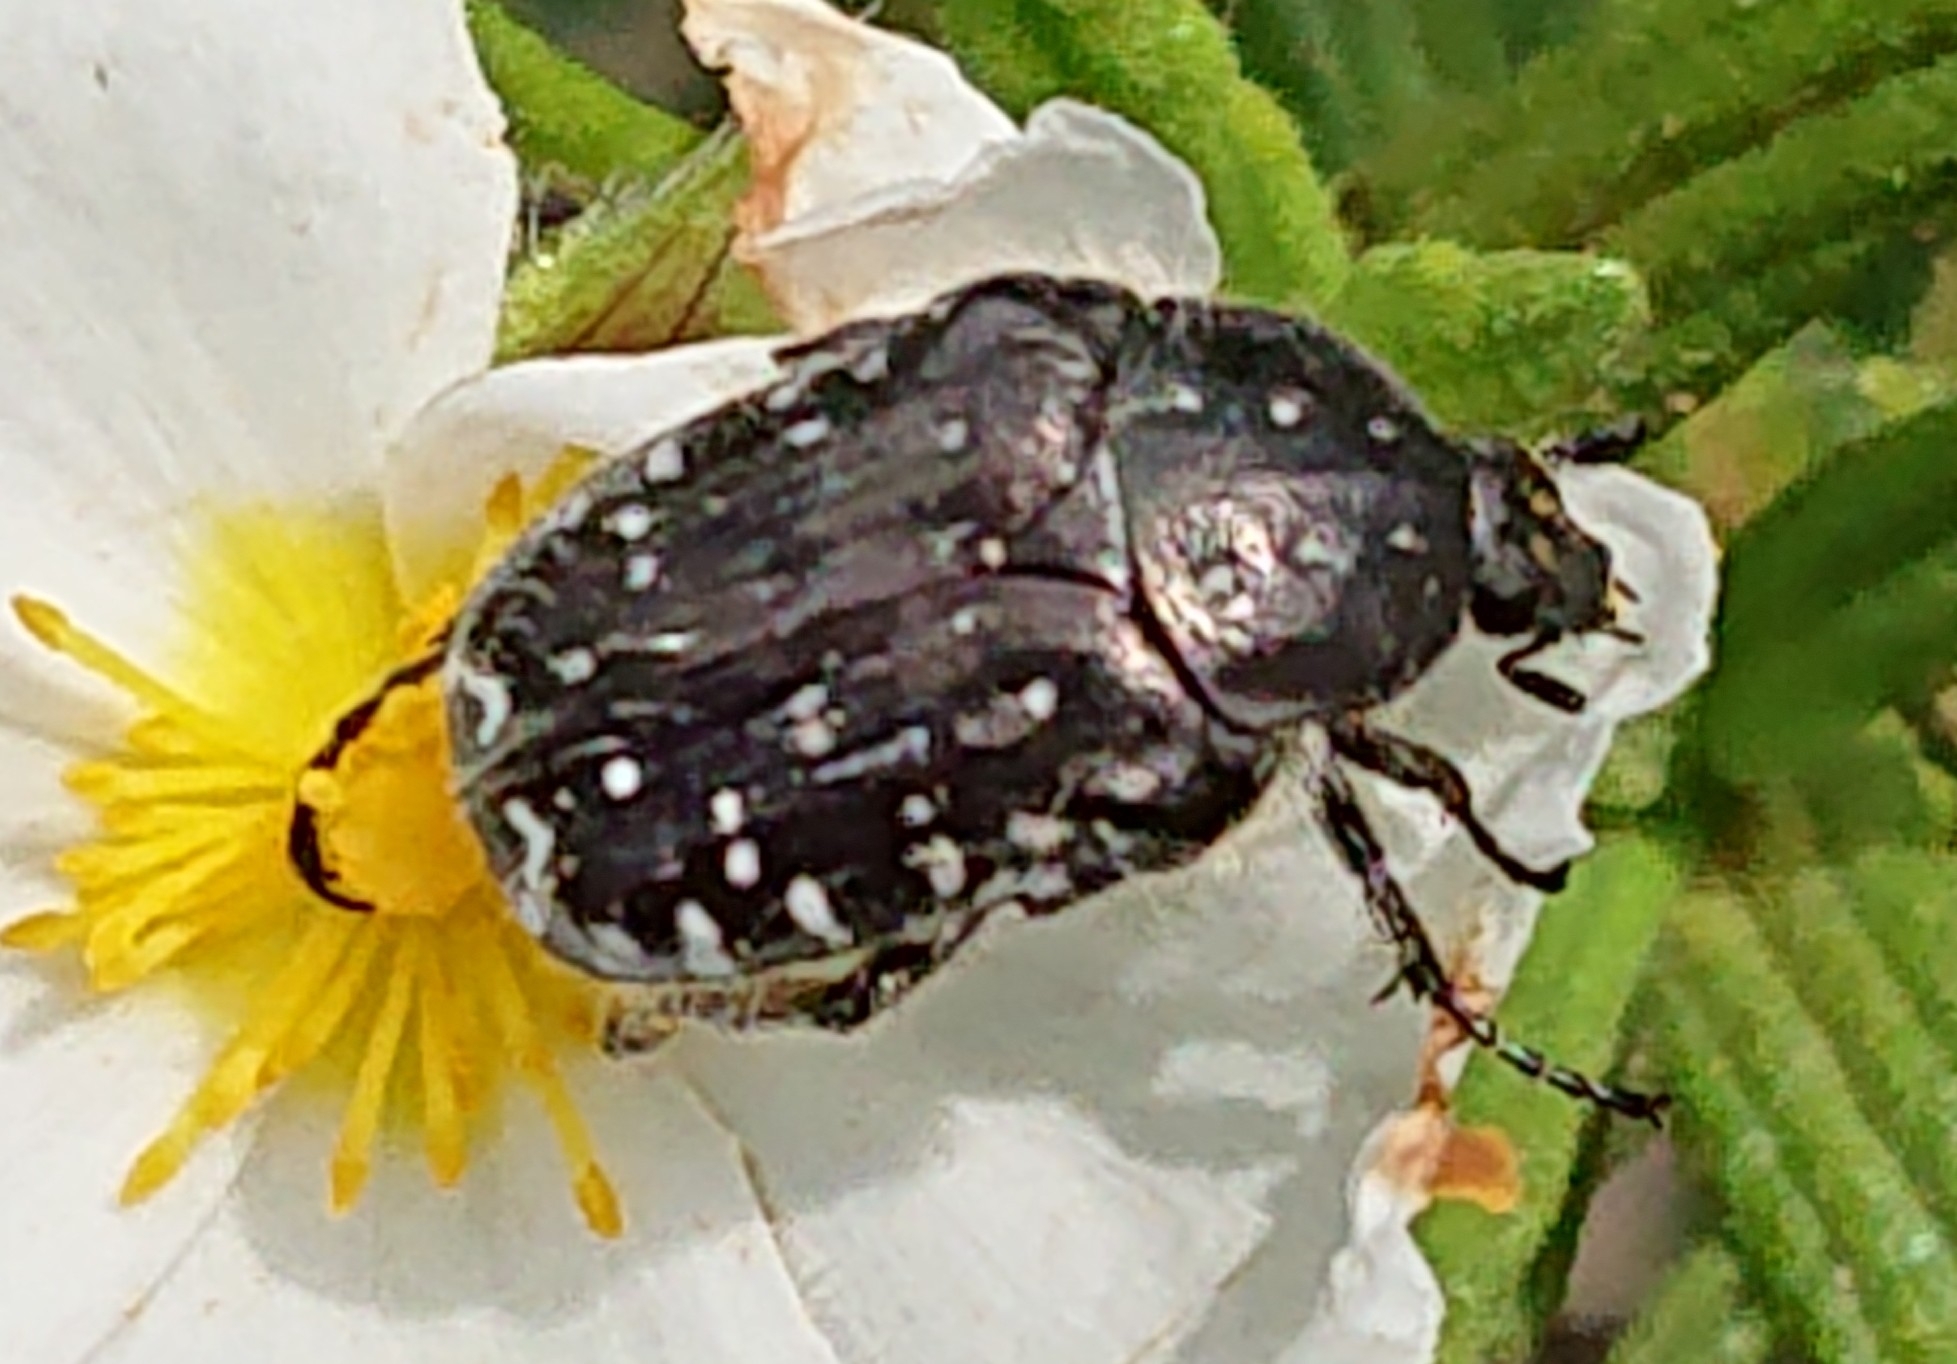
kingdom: Animalia
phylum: Arthropoda
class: Insecta
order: Coleoptera
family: Scarabaeidae
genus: Oxythyrea
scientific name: Oxythyrea funesta
